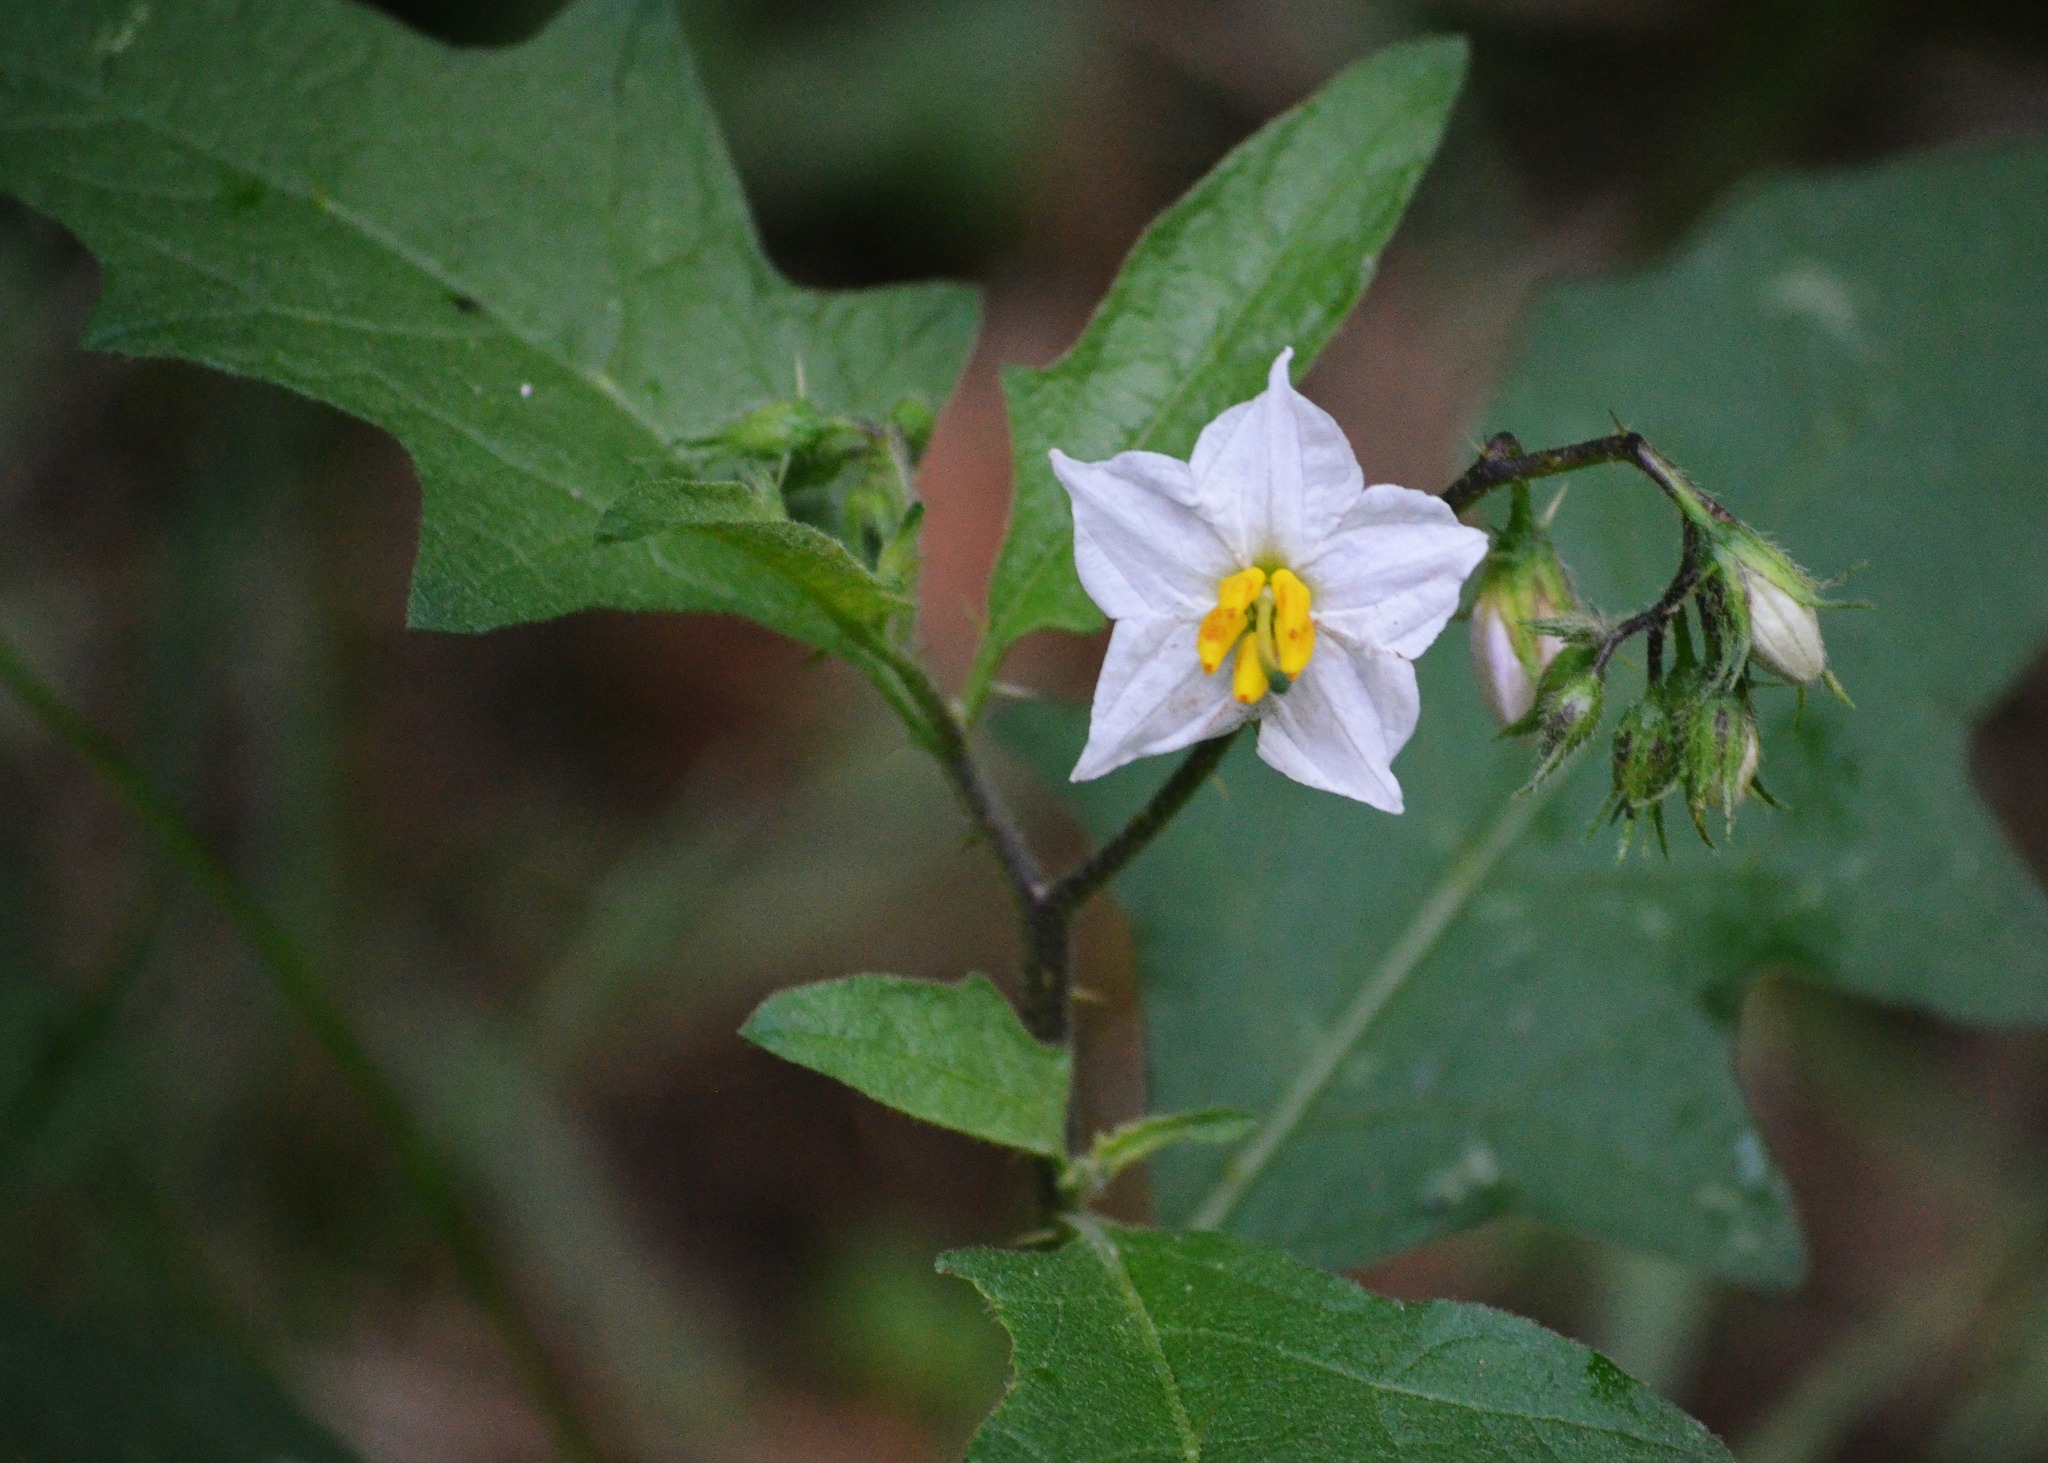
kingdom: Plantae
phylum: Tracheophyta
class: Magnoliopsida
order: Solanales
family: Solanaceae
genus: Solanum
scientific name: Solanum carolinense
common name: Horse-nettle
